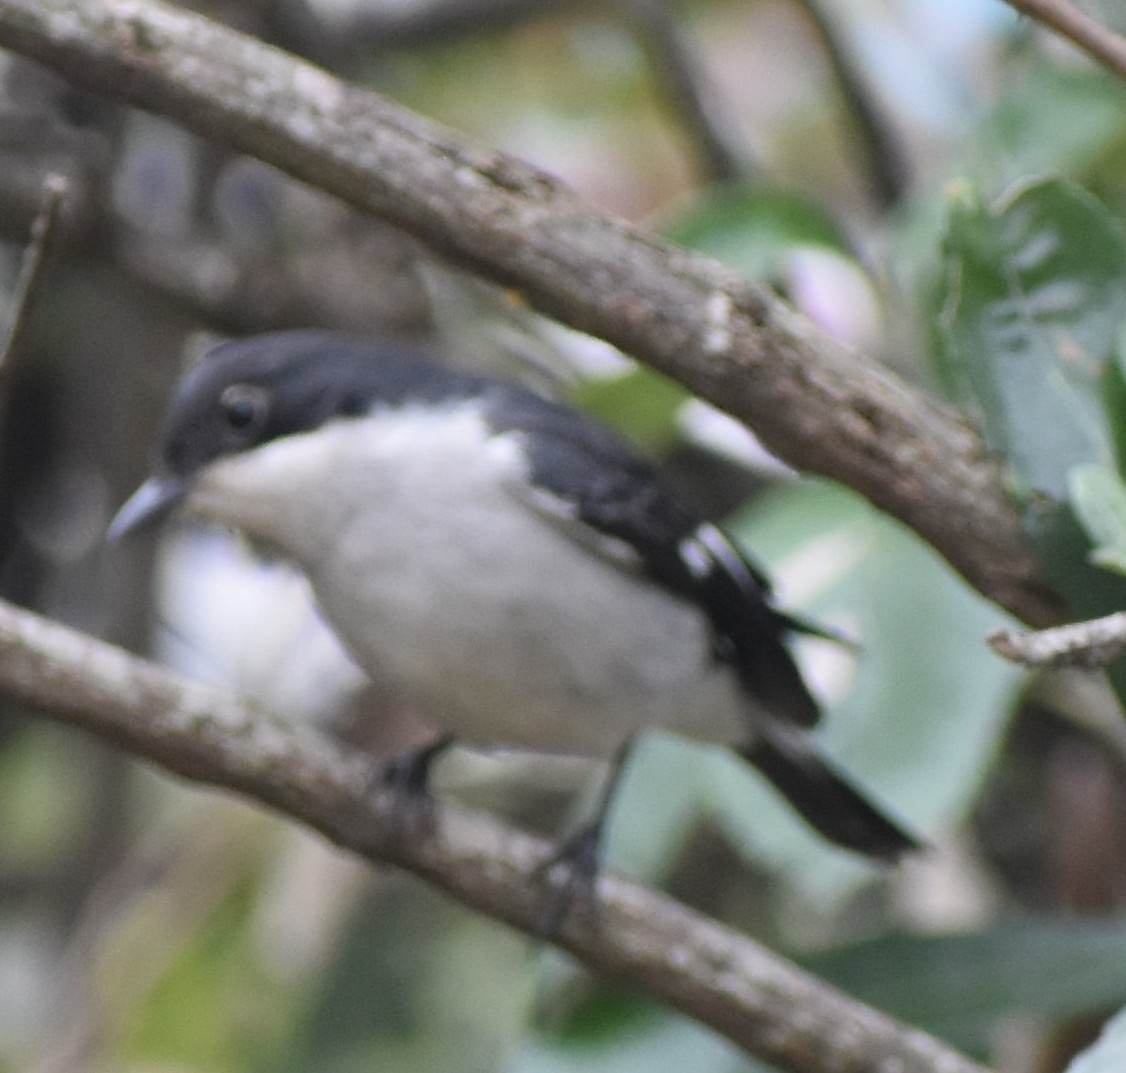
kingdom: Animalia
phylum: Chordata
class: Aves
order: Passeriformes
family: Muscicapidae
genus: Sigelus
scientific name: Sigelus silens
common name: Fiscal flycatcher
